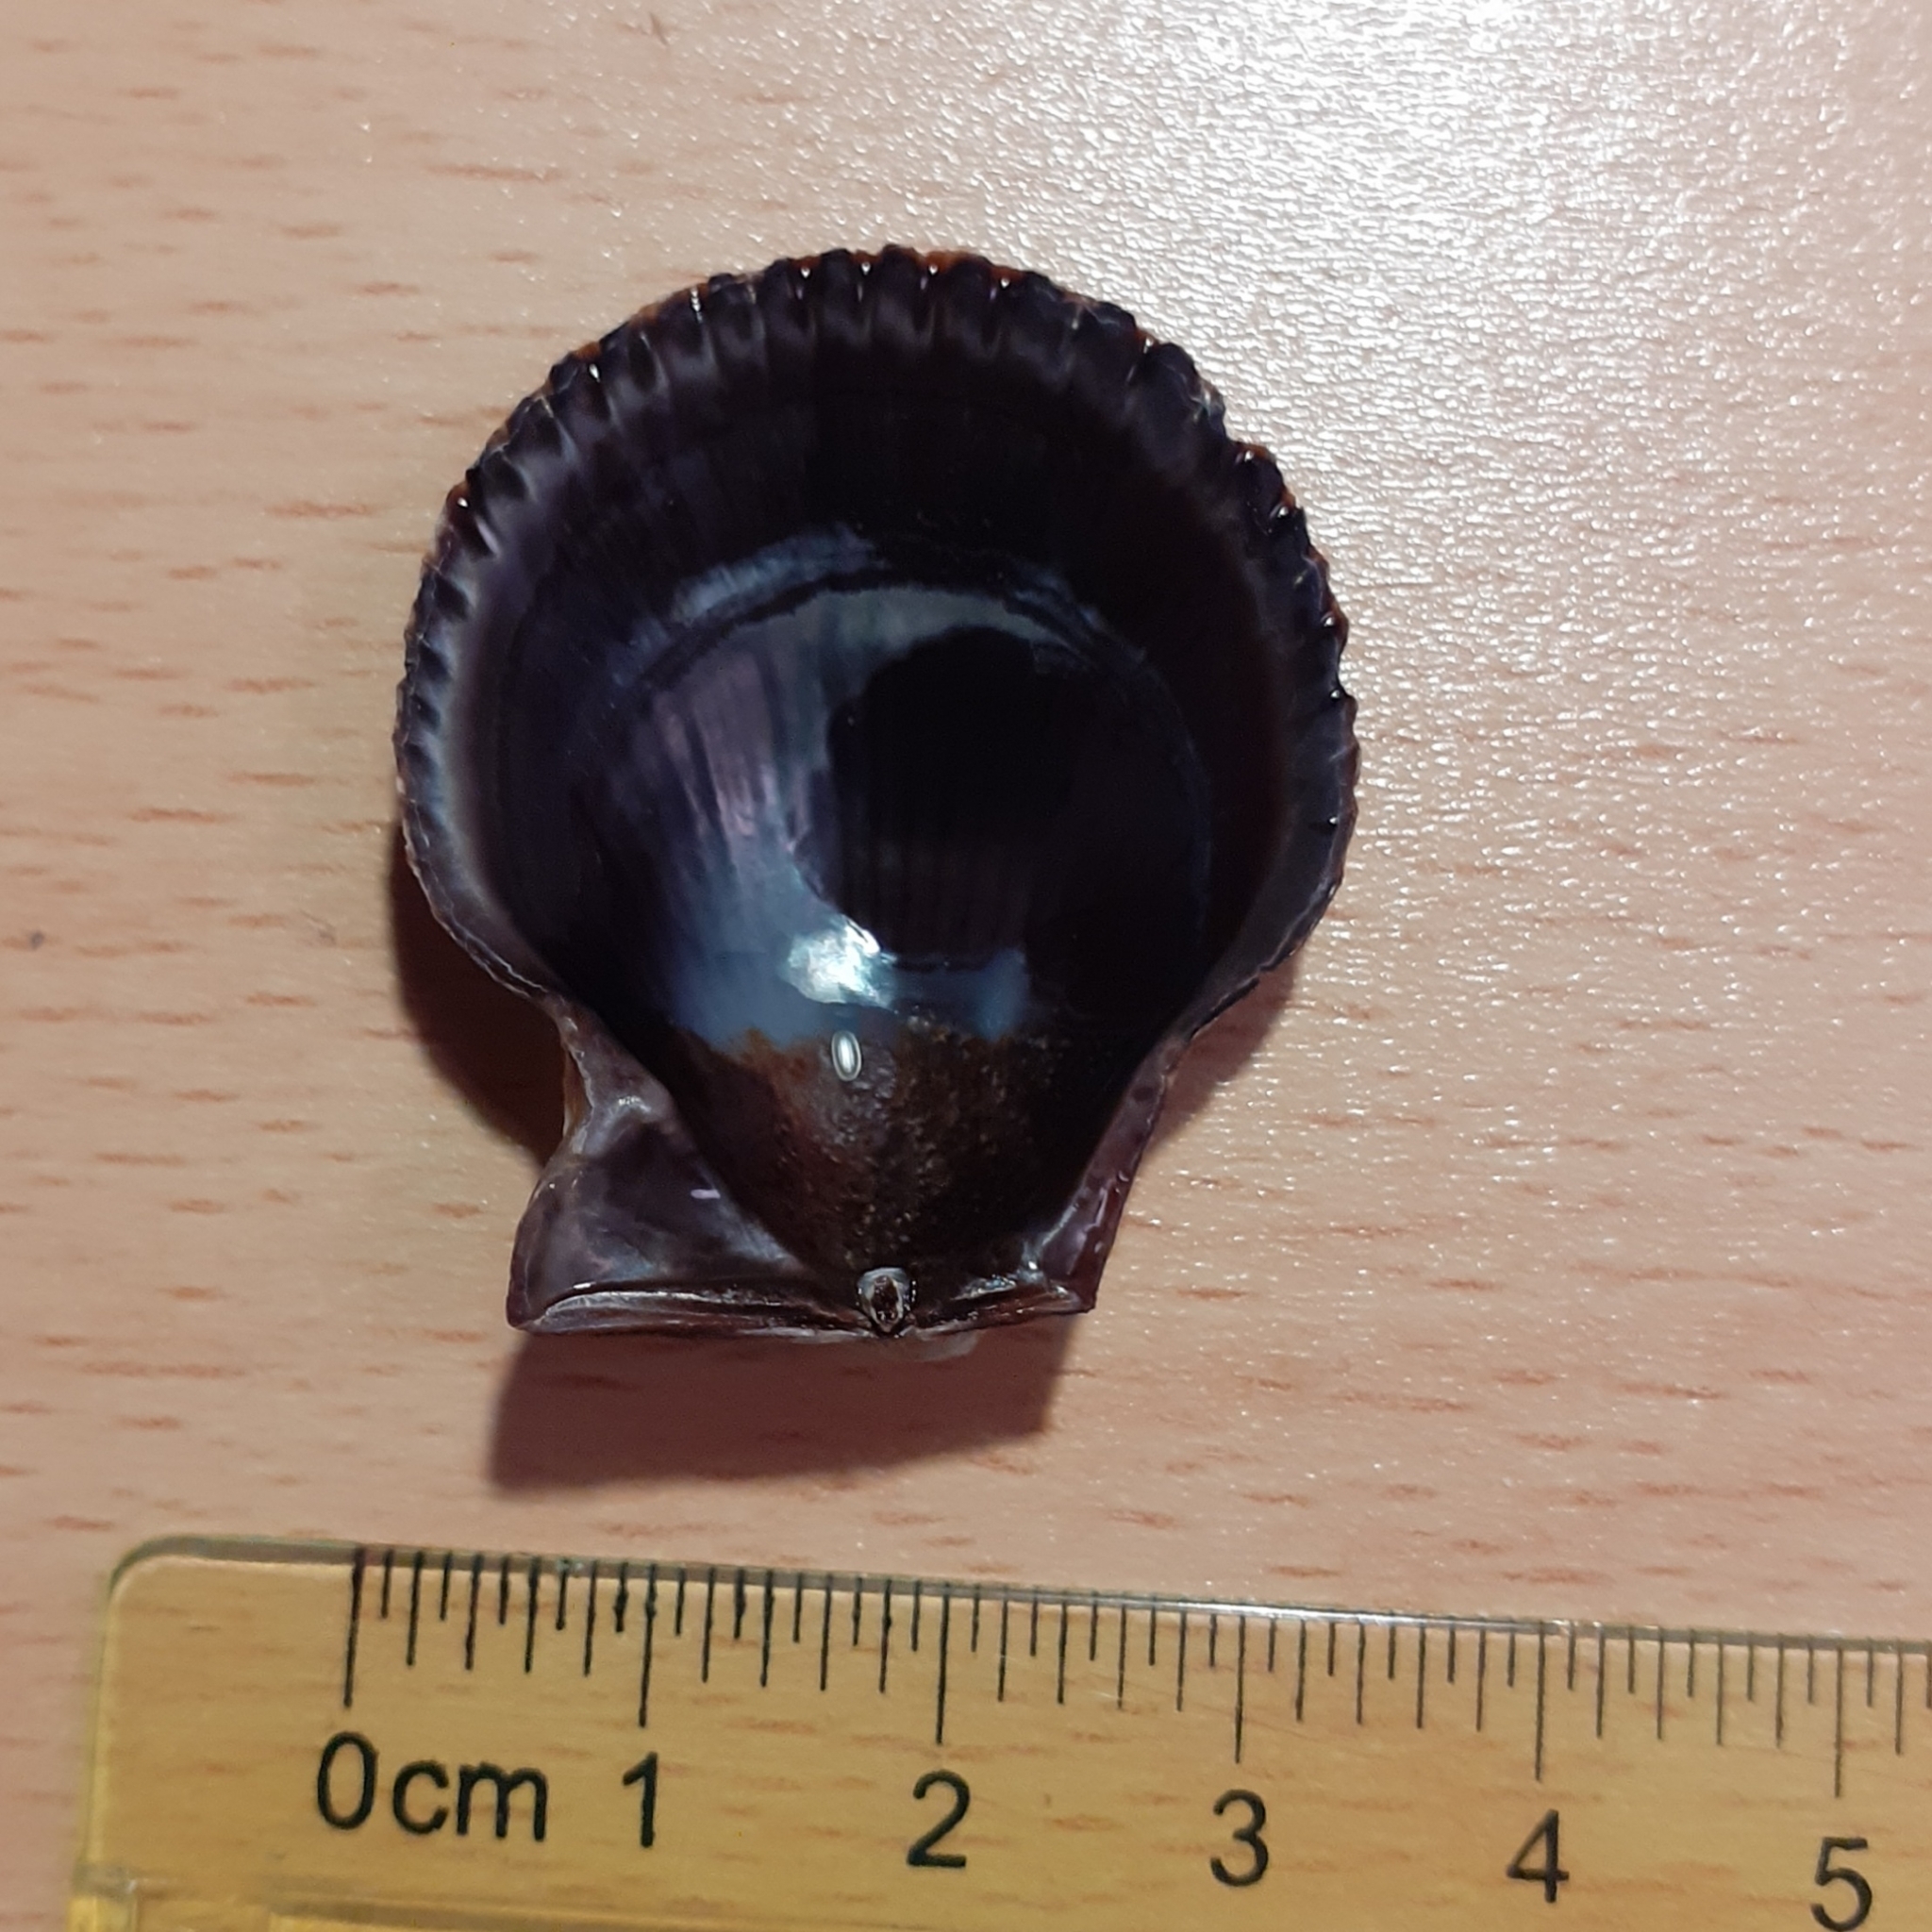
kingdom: Animalia
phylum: Mollusca
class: Bivalvia
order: Pectinida
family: Pectinidae
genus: Mimachlamys
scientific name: Mimachlamys varia
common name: Variegated scallop
